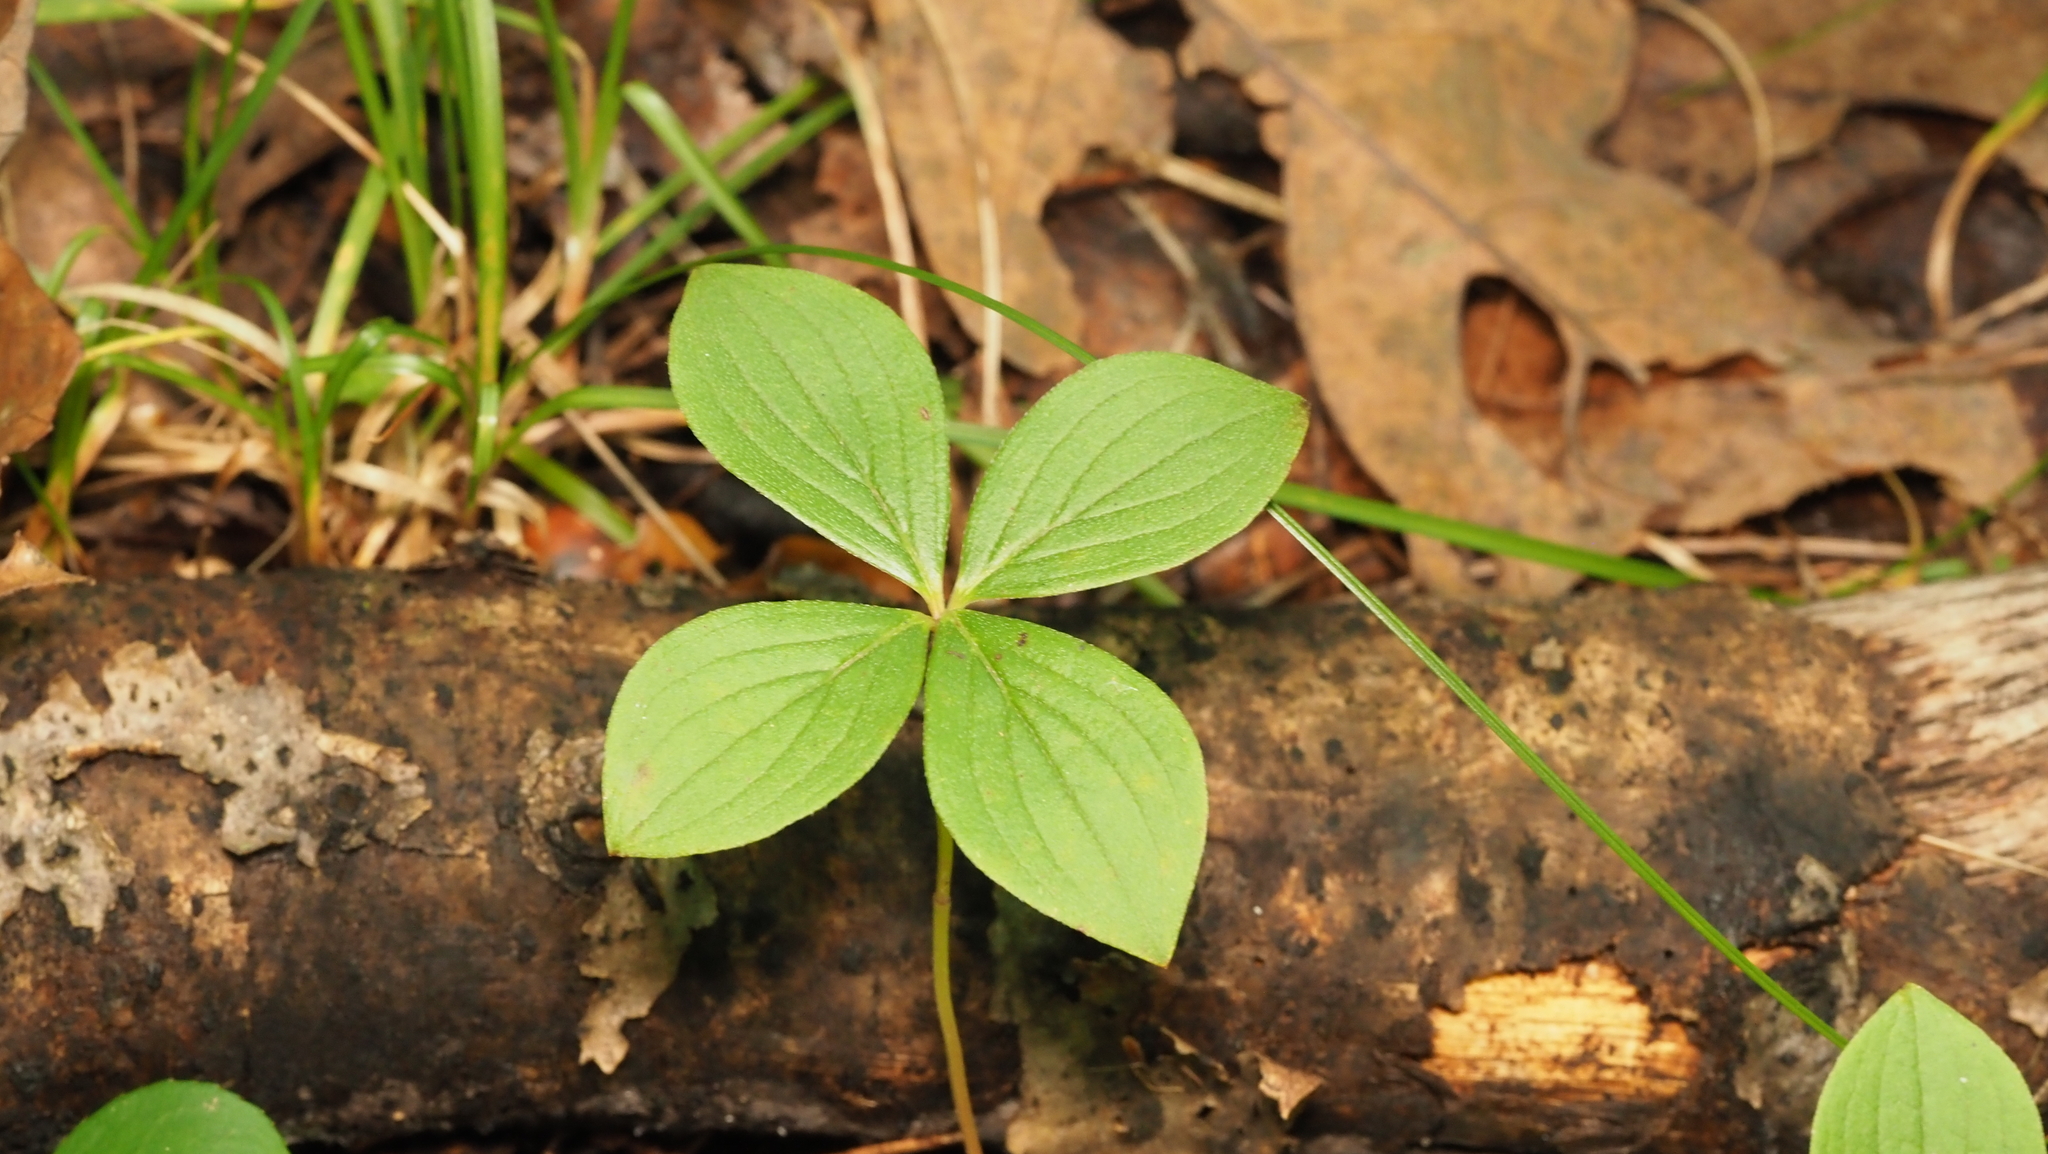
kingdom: Plantae
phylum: Tracheophyta
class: Magnoliopsida
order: Cornales
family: Cornaceae
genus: Cornus
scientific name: Cornus canadensis
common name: Creeping dogwood
